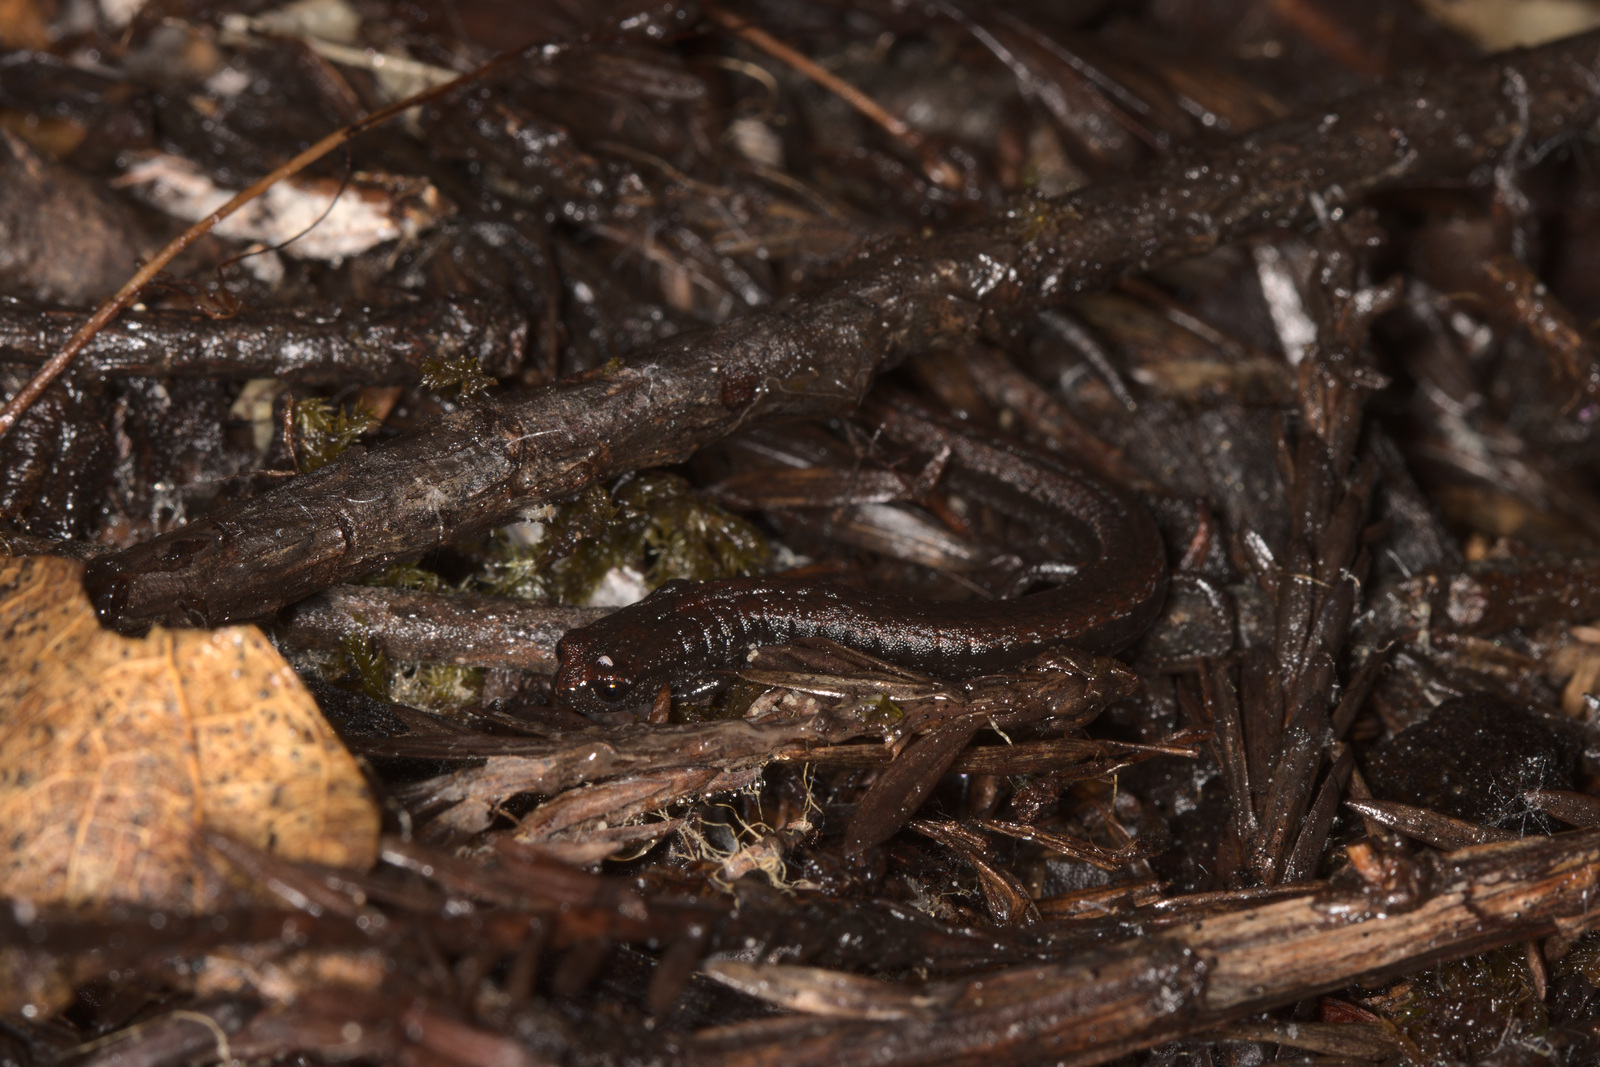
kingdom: Animalia
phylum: Chordata
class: Amphibia
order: Caudata
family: Plethodontidae
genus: Batrachoseps
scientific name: Batrachoseps attenuatus
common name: California slender salamander
